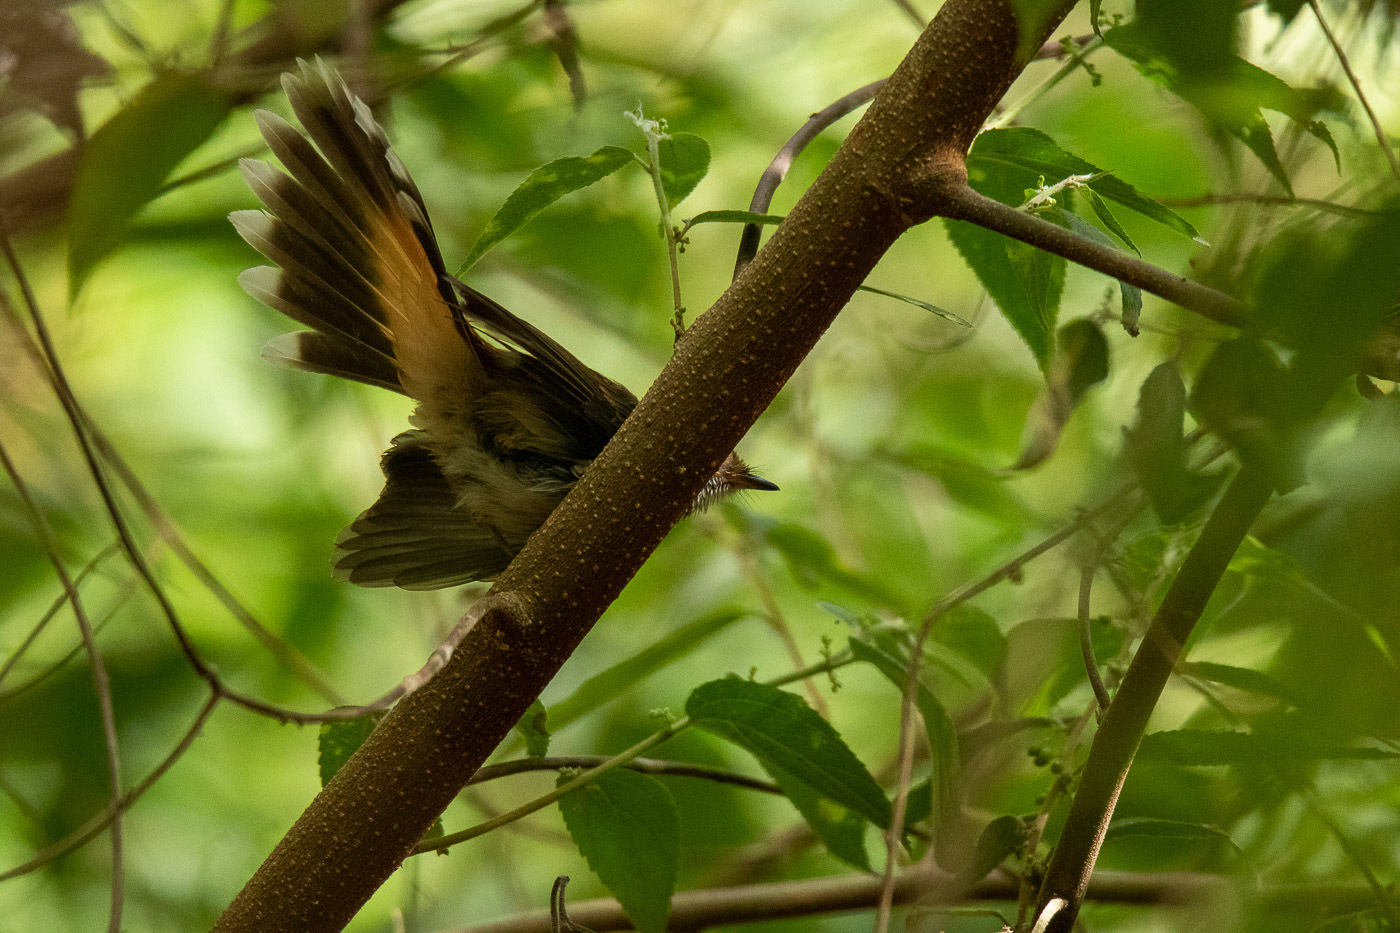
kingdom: Animalia
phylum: Chordata
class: Aves
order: Passeriformes
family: Rhipiduridae
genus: Rhipidura
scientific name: Rhipidura rufifrons
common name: Rufous fantail
